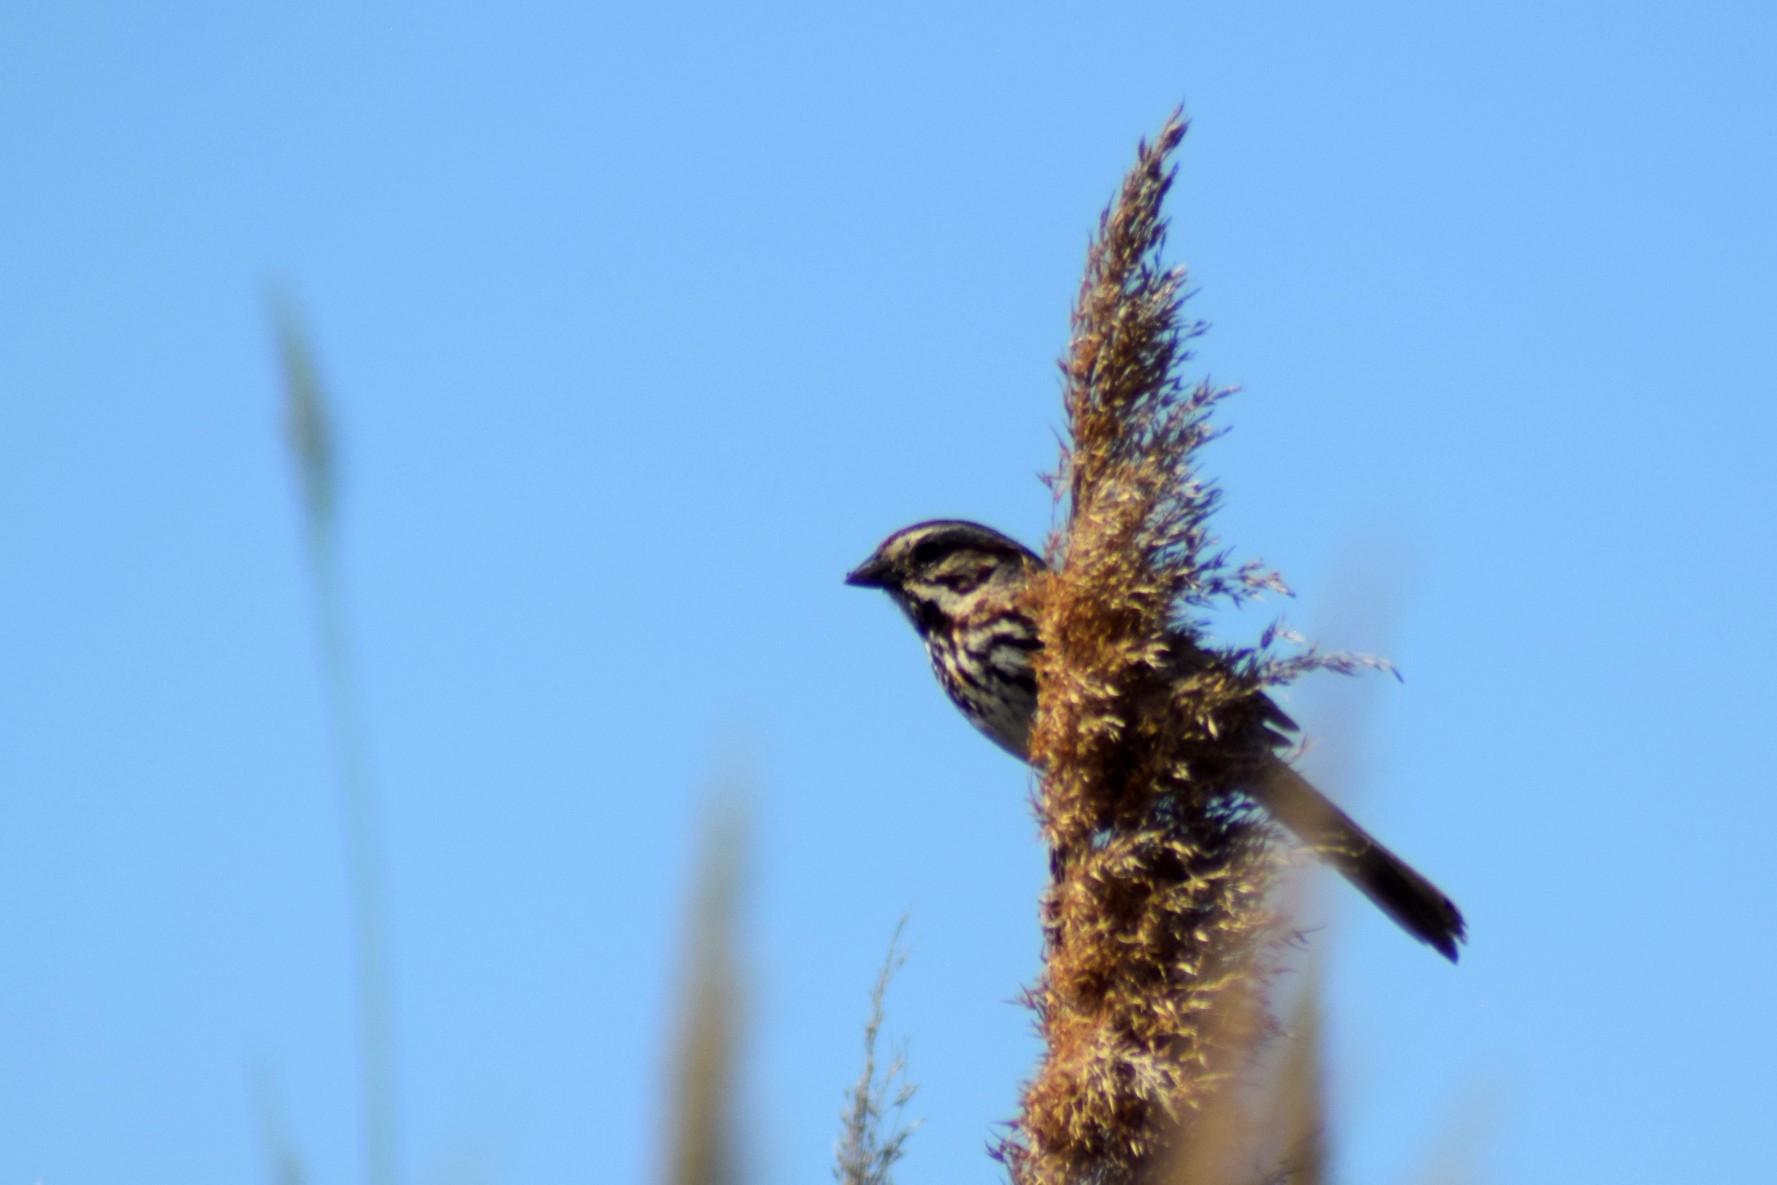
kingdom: Animalia
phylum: Chordata
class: Aves
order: Passeriformes
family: Passerellidae
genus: Melospiza
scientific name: Melospiza melodia
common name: Song sparrow
